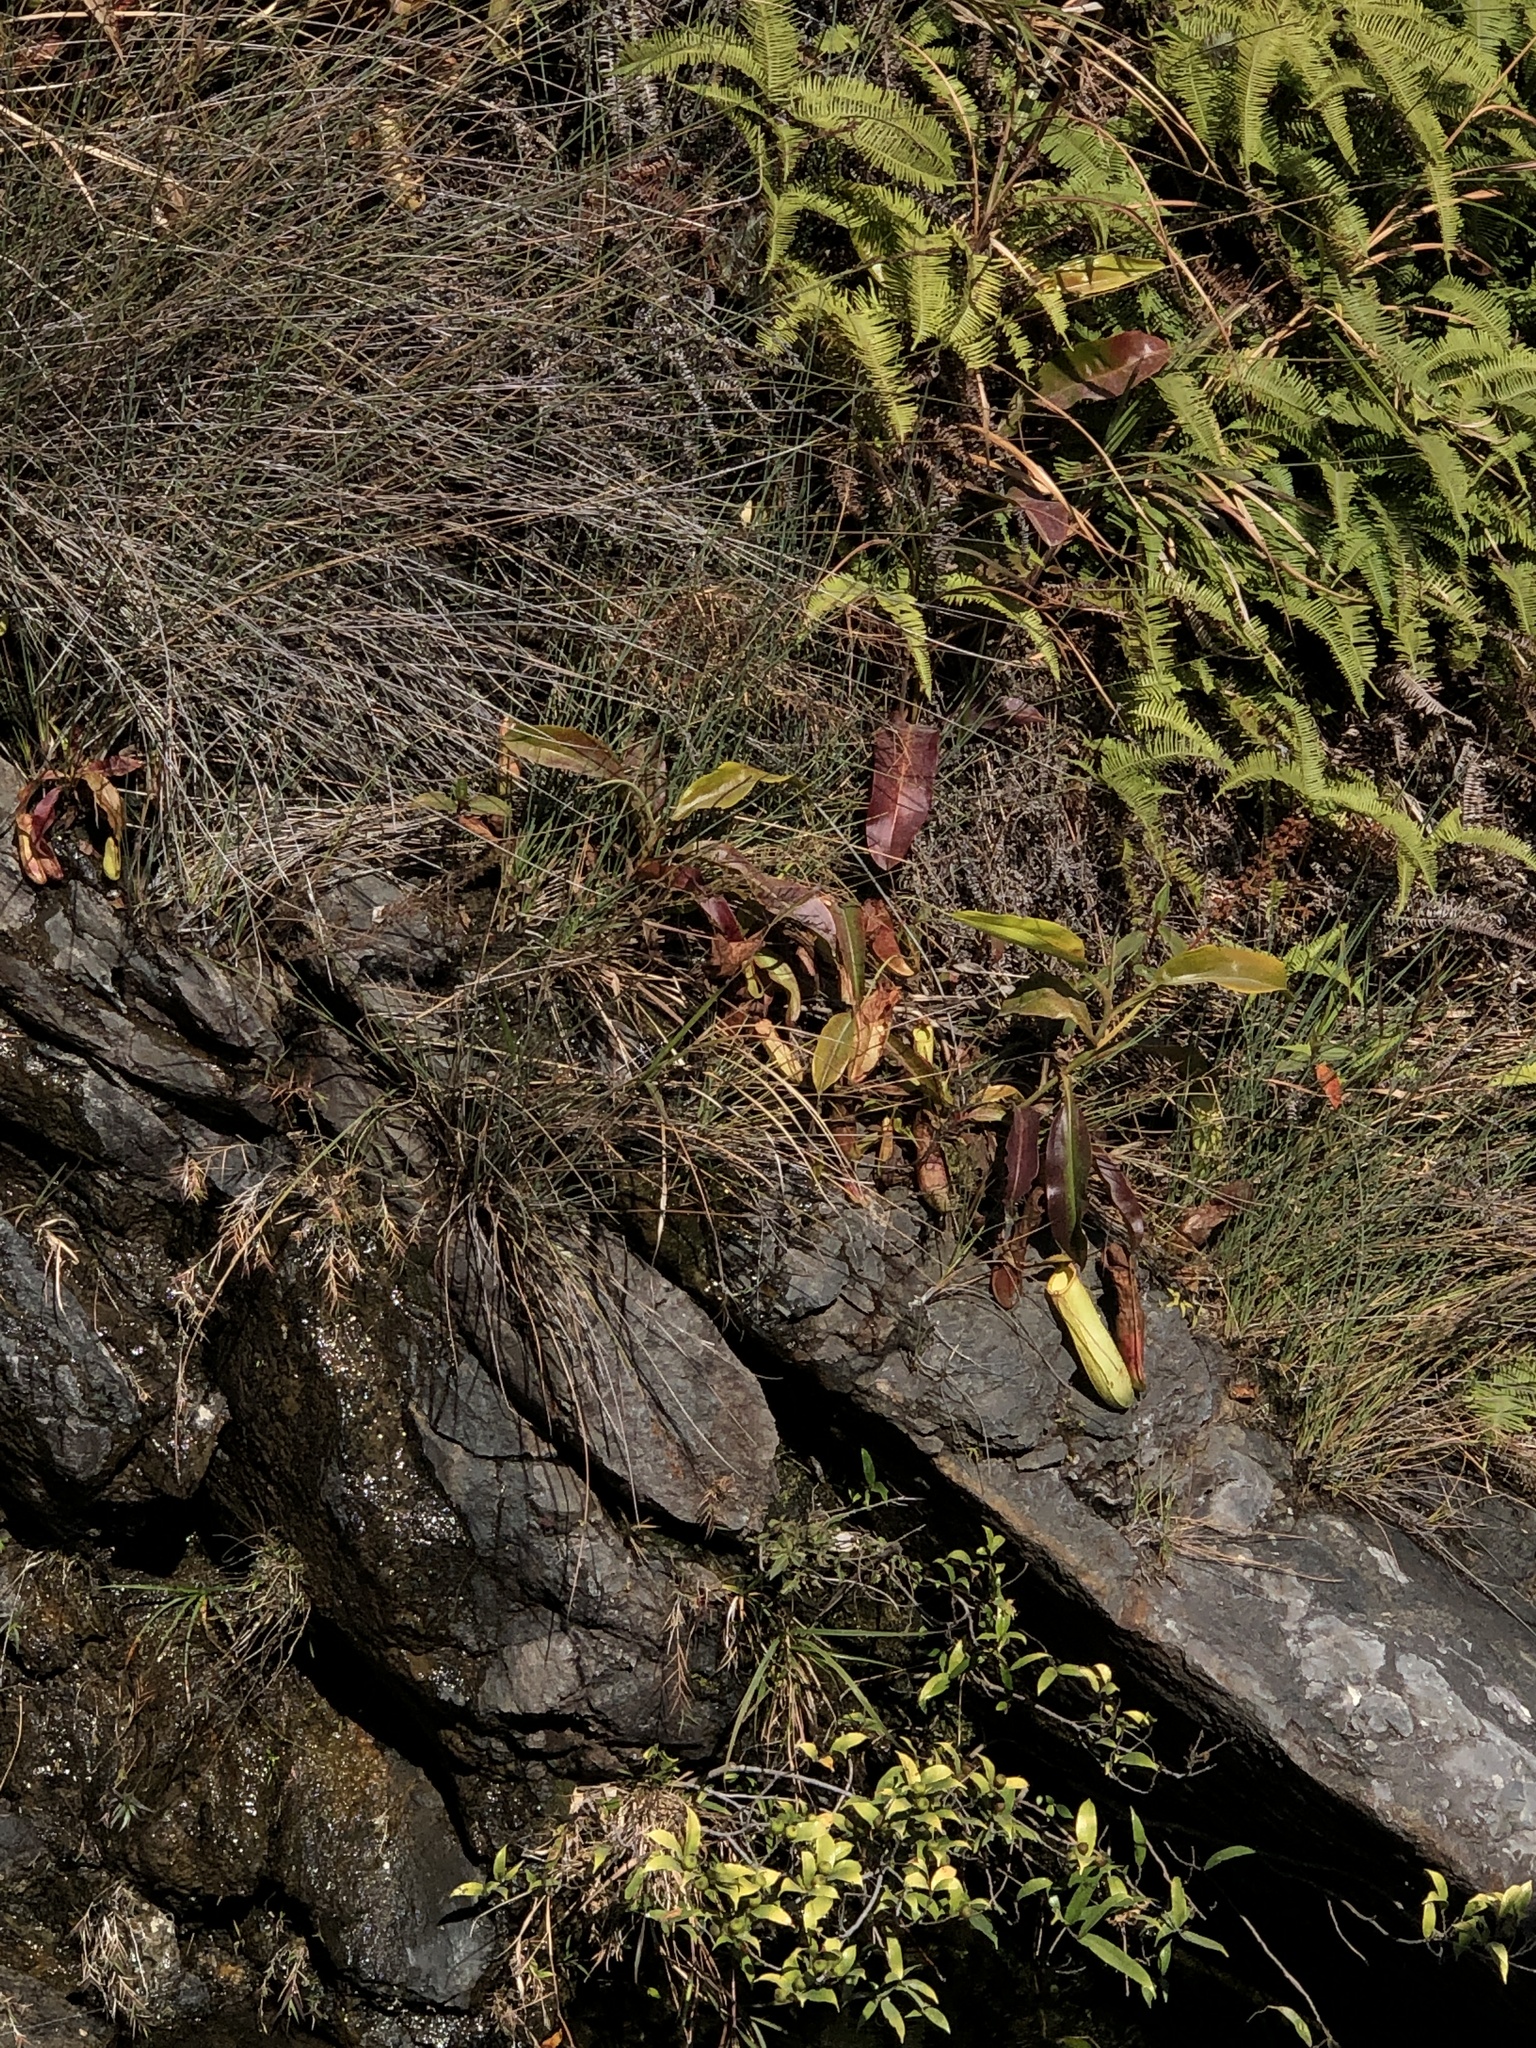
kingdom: Plantae
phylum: Tracheophyta
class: Magnoliopsida
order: Caryophyllales
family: Nepenthaceae
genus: Nepenthes
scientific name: Nepenthes mirabilis
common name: Tropical pitcherplant
